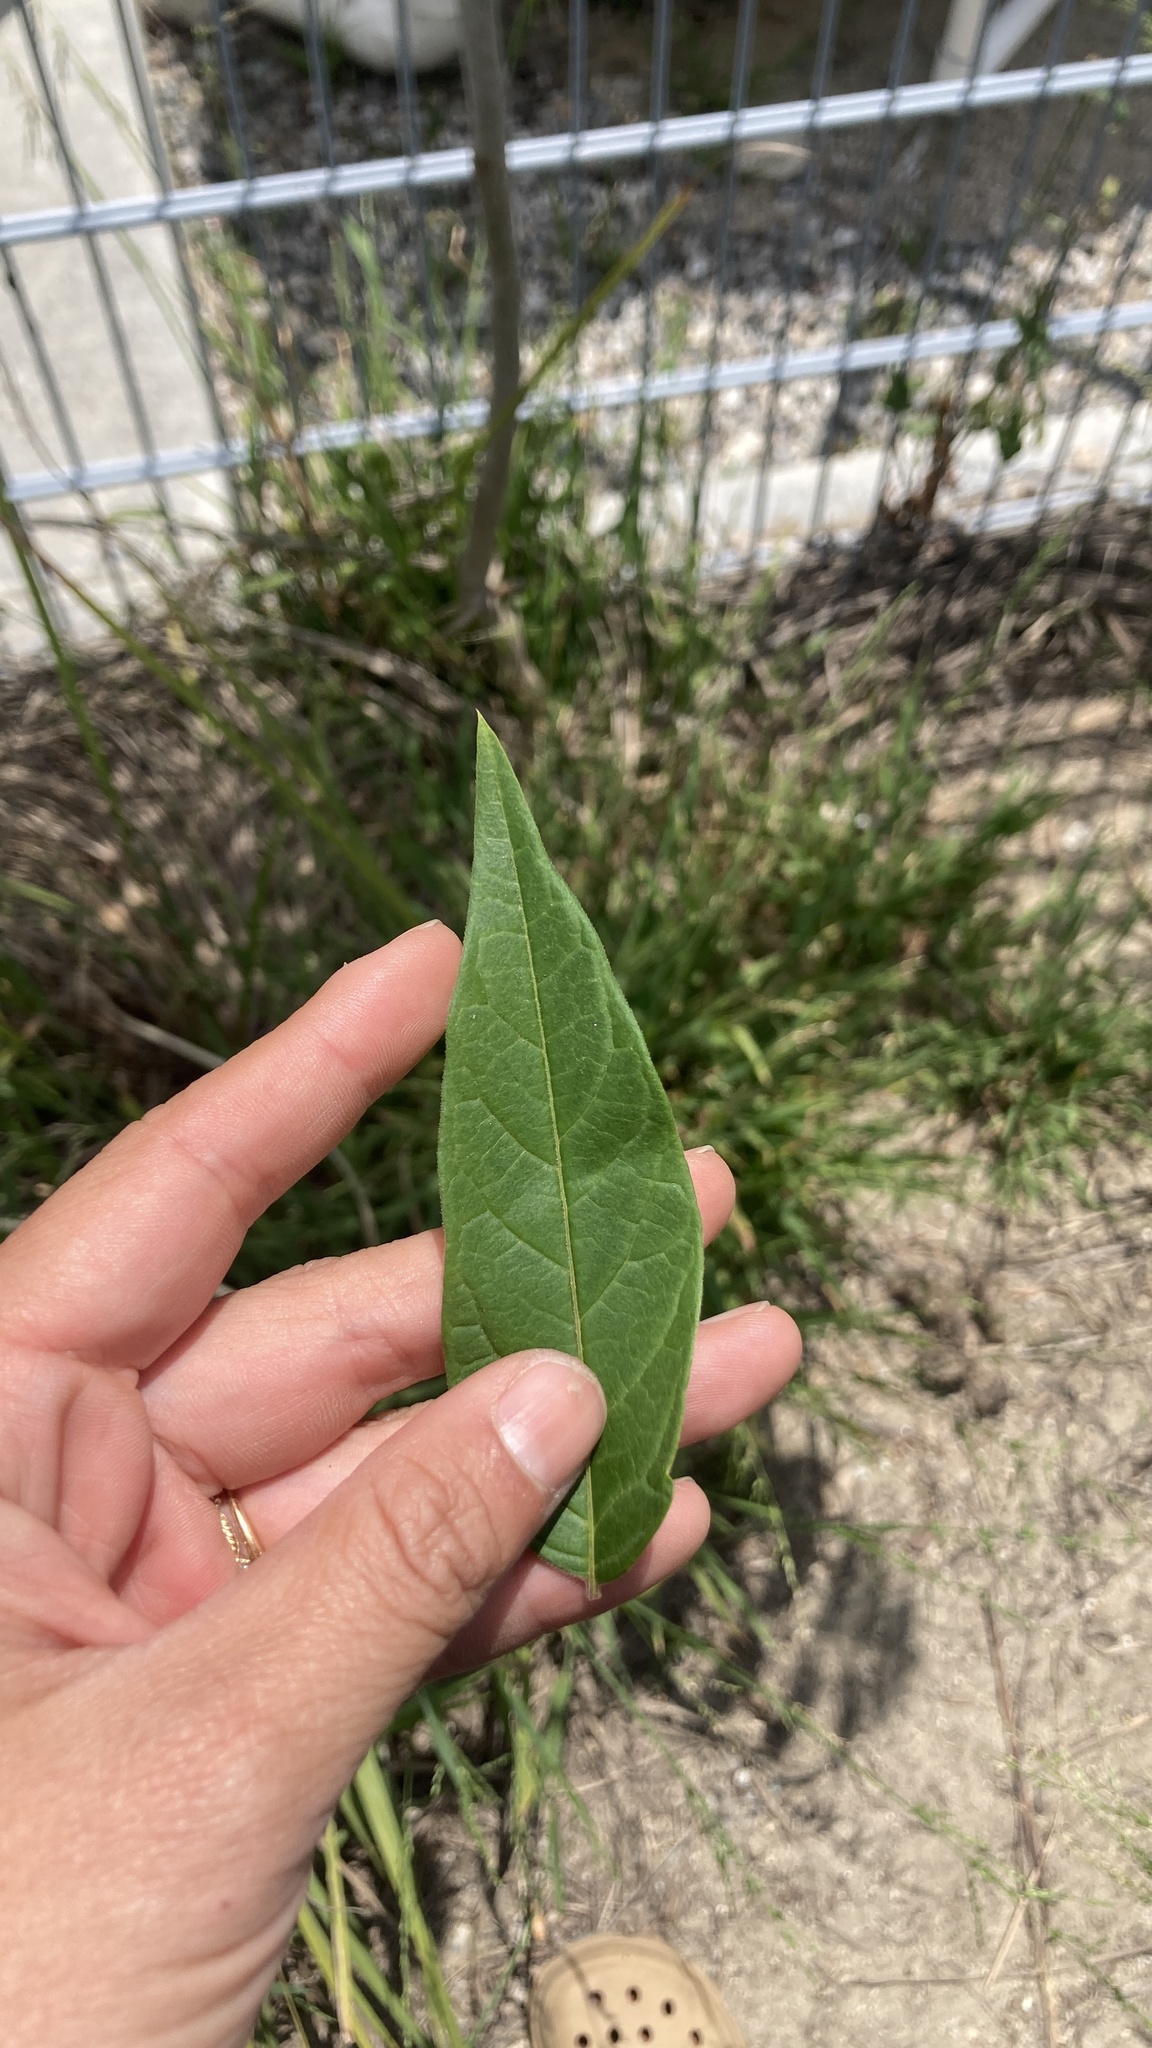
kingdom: Plantae
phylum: Tracheophyta
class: Magnoliopsida
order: Sapindales
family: Simaroubaceae
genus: Ailanthus
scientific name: Ailanthus altissima
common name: Tree-of-heaven
